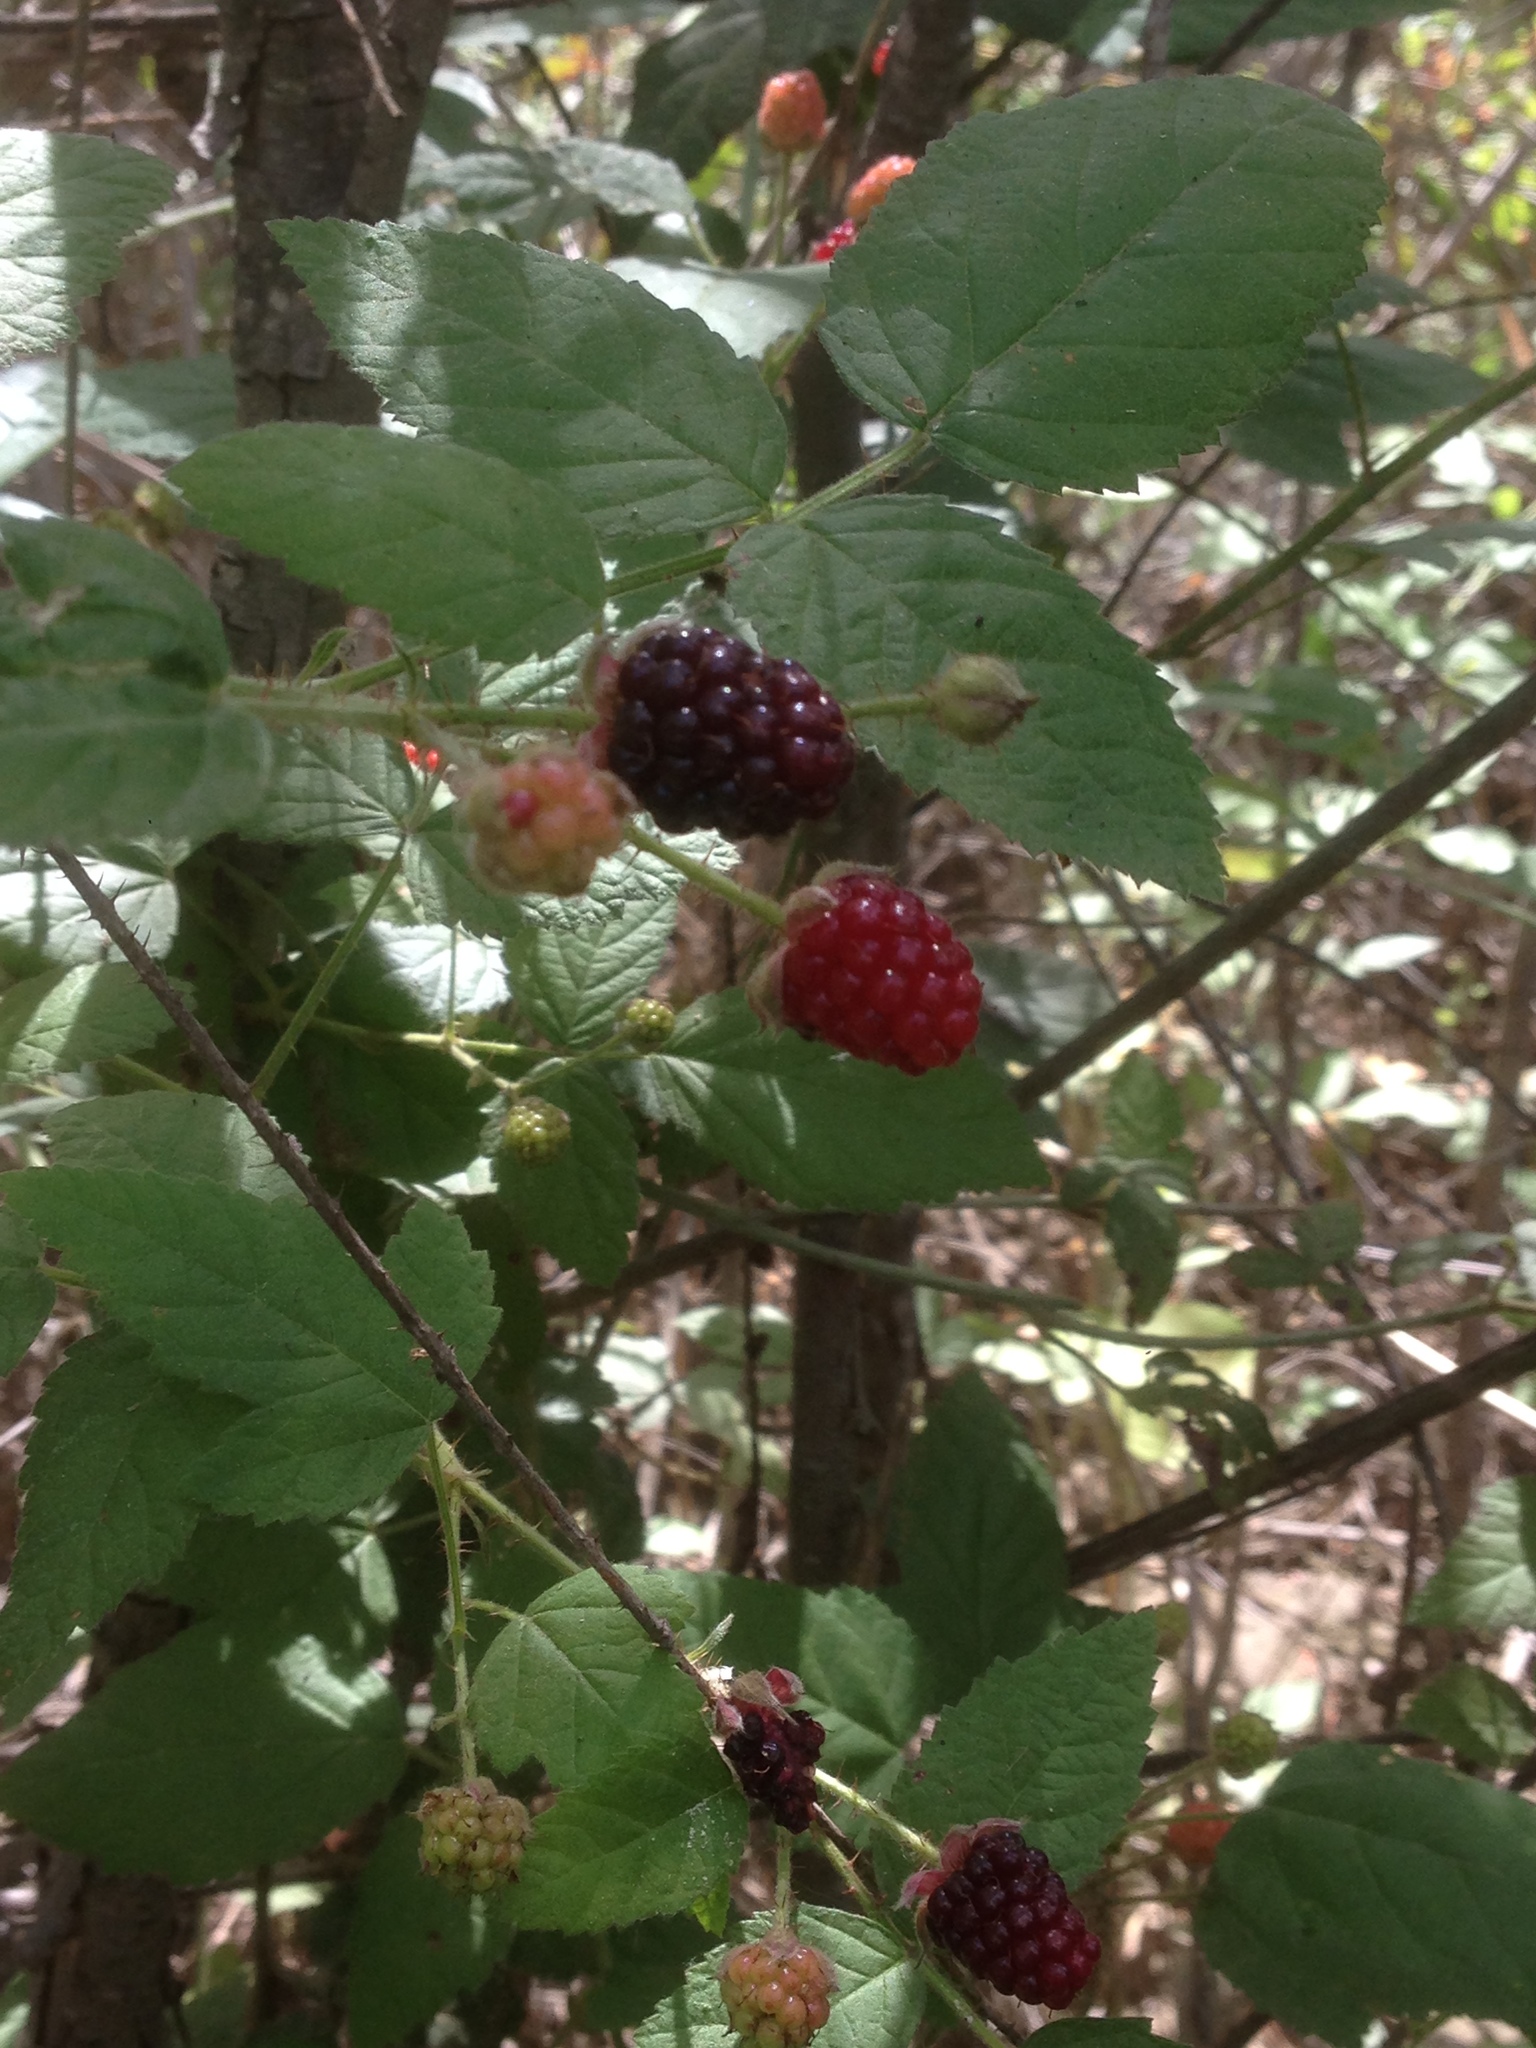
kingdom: Plantae
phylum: Tracheophyta
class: Magnoliopsida
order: Rosales
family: Rosaceae
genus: Rubus
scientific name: Rubus ursinus
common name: Pacific blackberry
